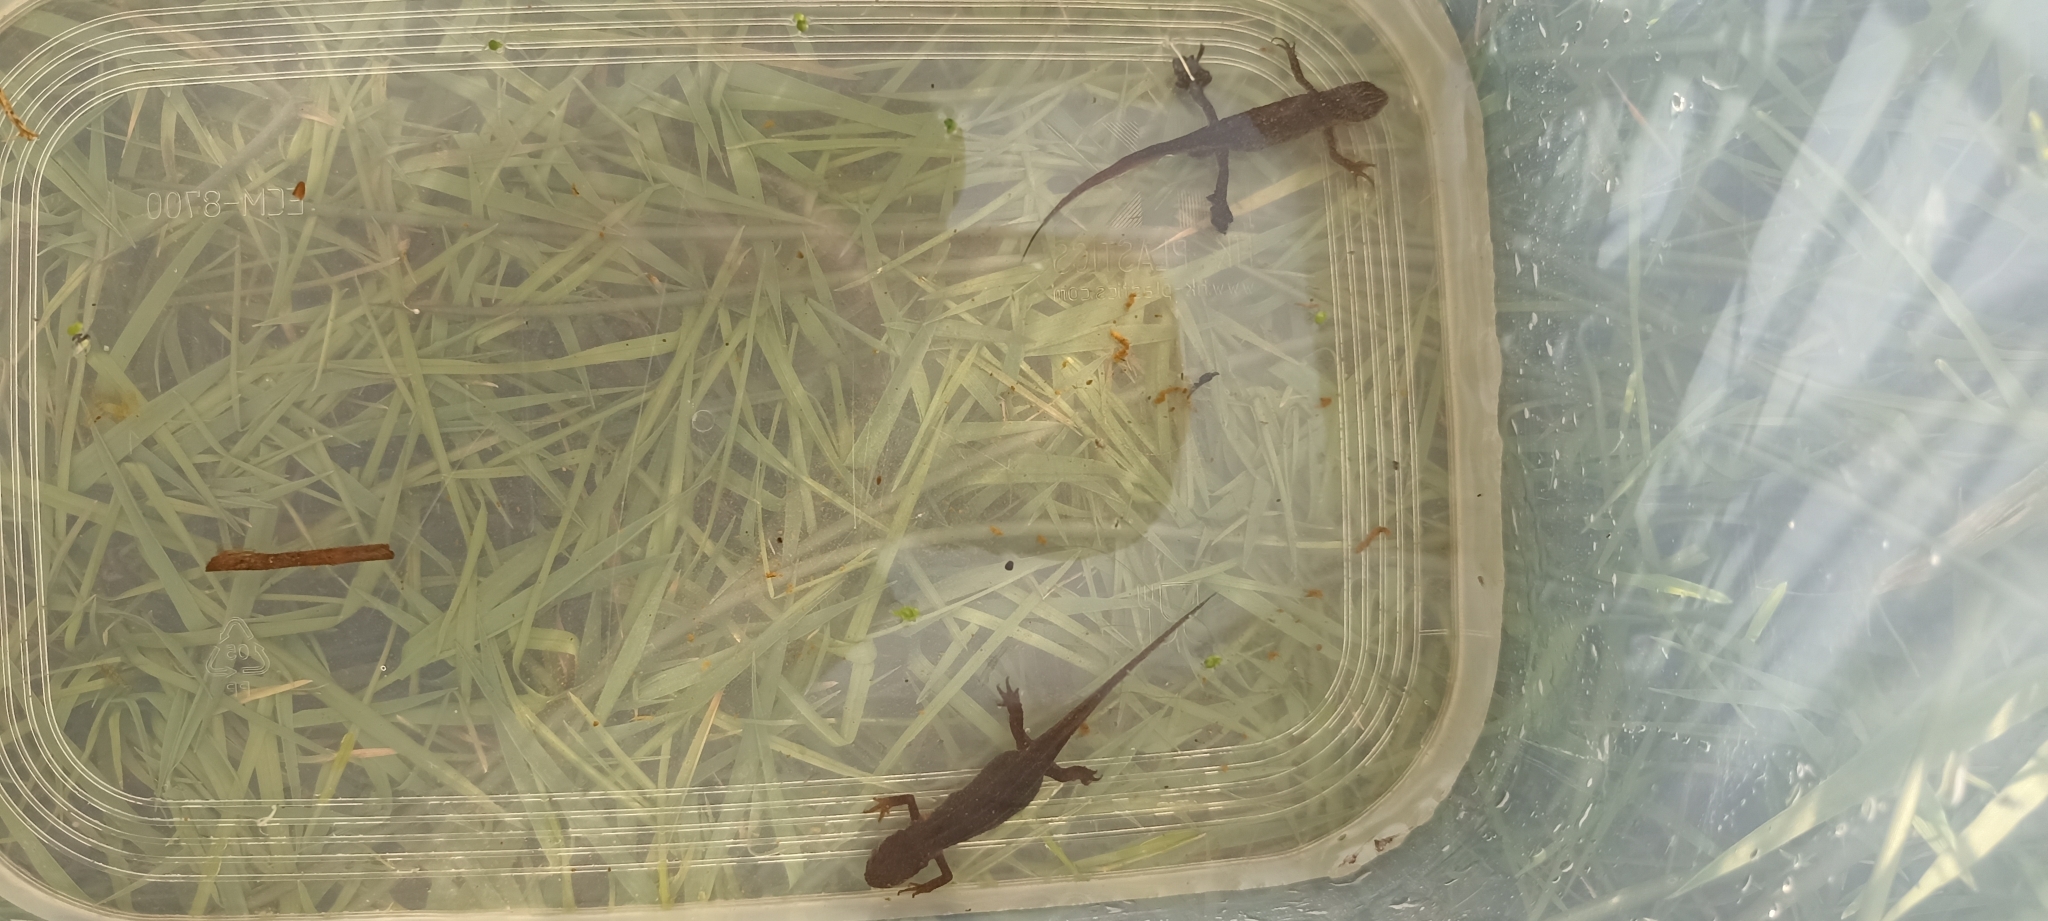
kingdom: Animalia
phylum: Chordata
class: Amphibia
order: Caudata
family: Salamandridae
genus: Lissotriton
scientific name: Lissotriton helveticus
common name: Palmate newt
